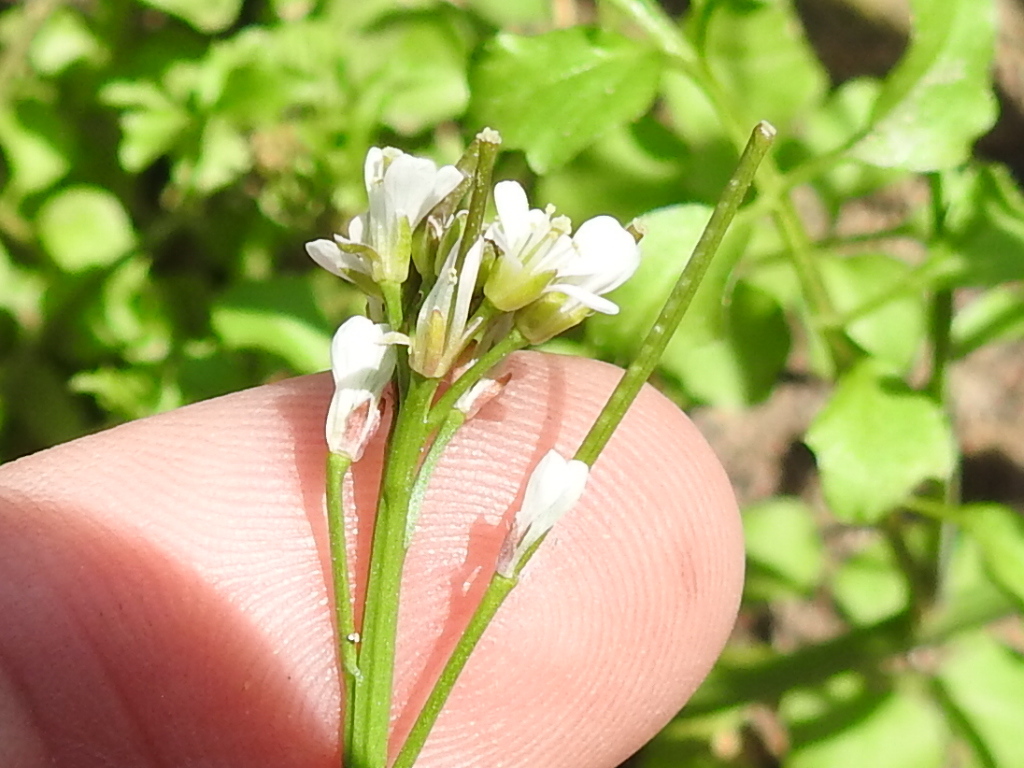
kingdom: Plantae
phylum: Tracheophyta
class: Magnoliopsida
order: Brassicales
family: Brassicaceae
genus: Cardamine
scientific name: Cardamine hirsuta
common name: Hairy bittercress
